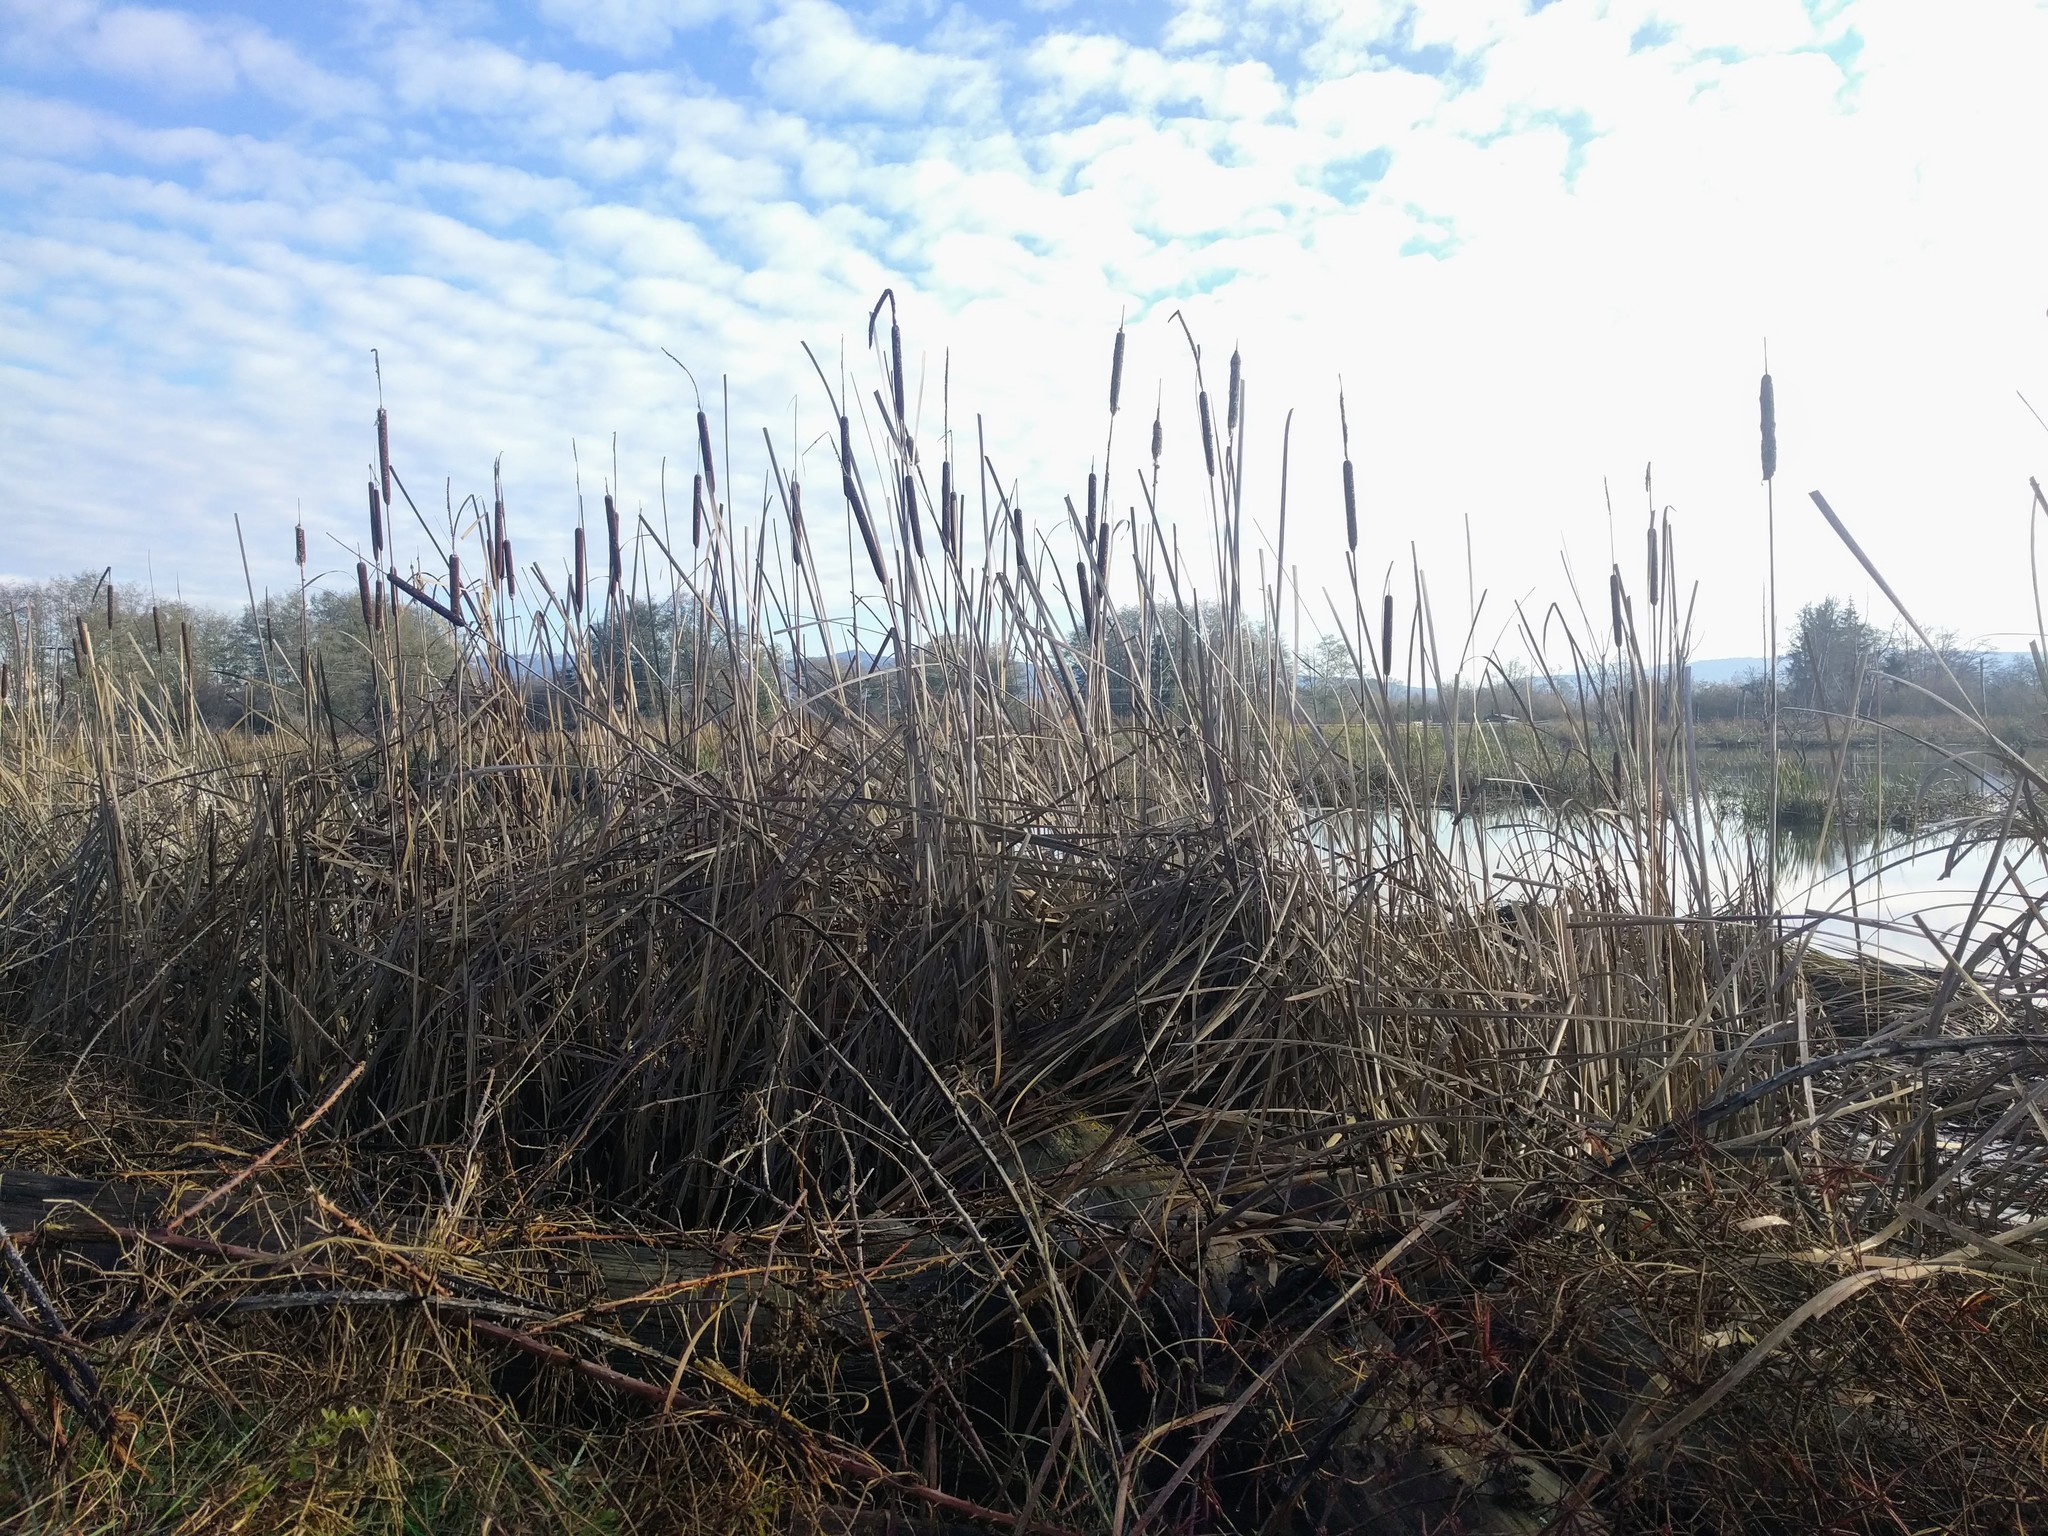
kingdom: Plantae
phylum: Tracheophyta
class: Liliopsida
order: Poales
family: Typhaceae
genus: Typha
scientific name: Typha latifolia
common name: Broadleaf cattail
